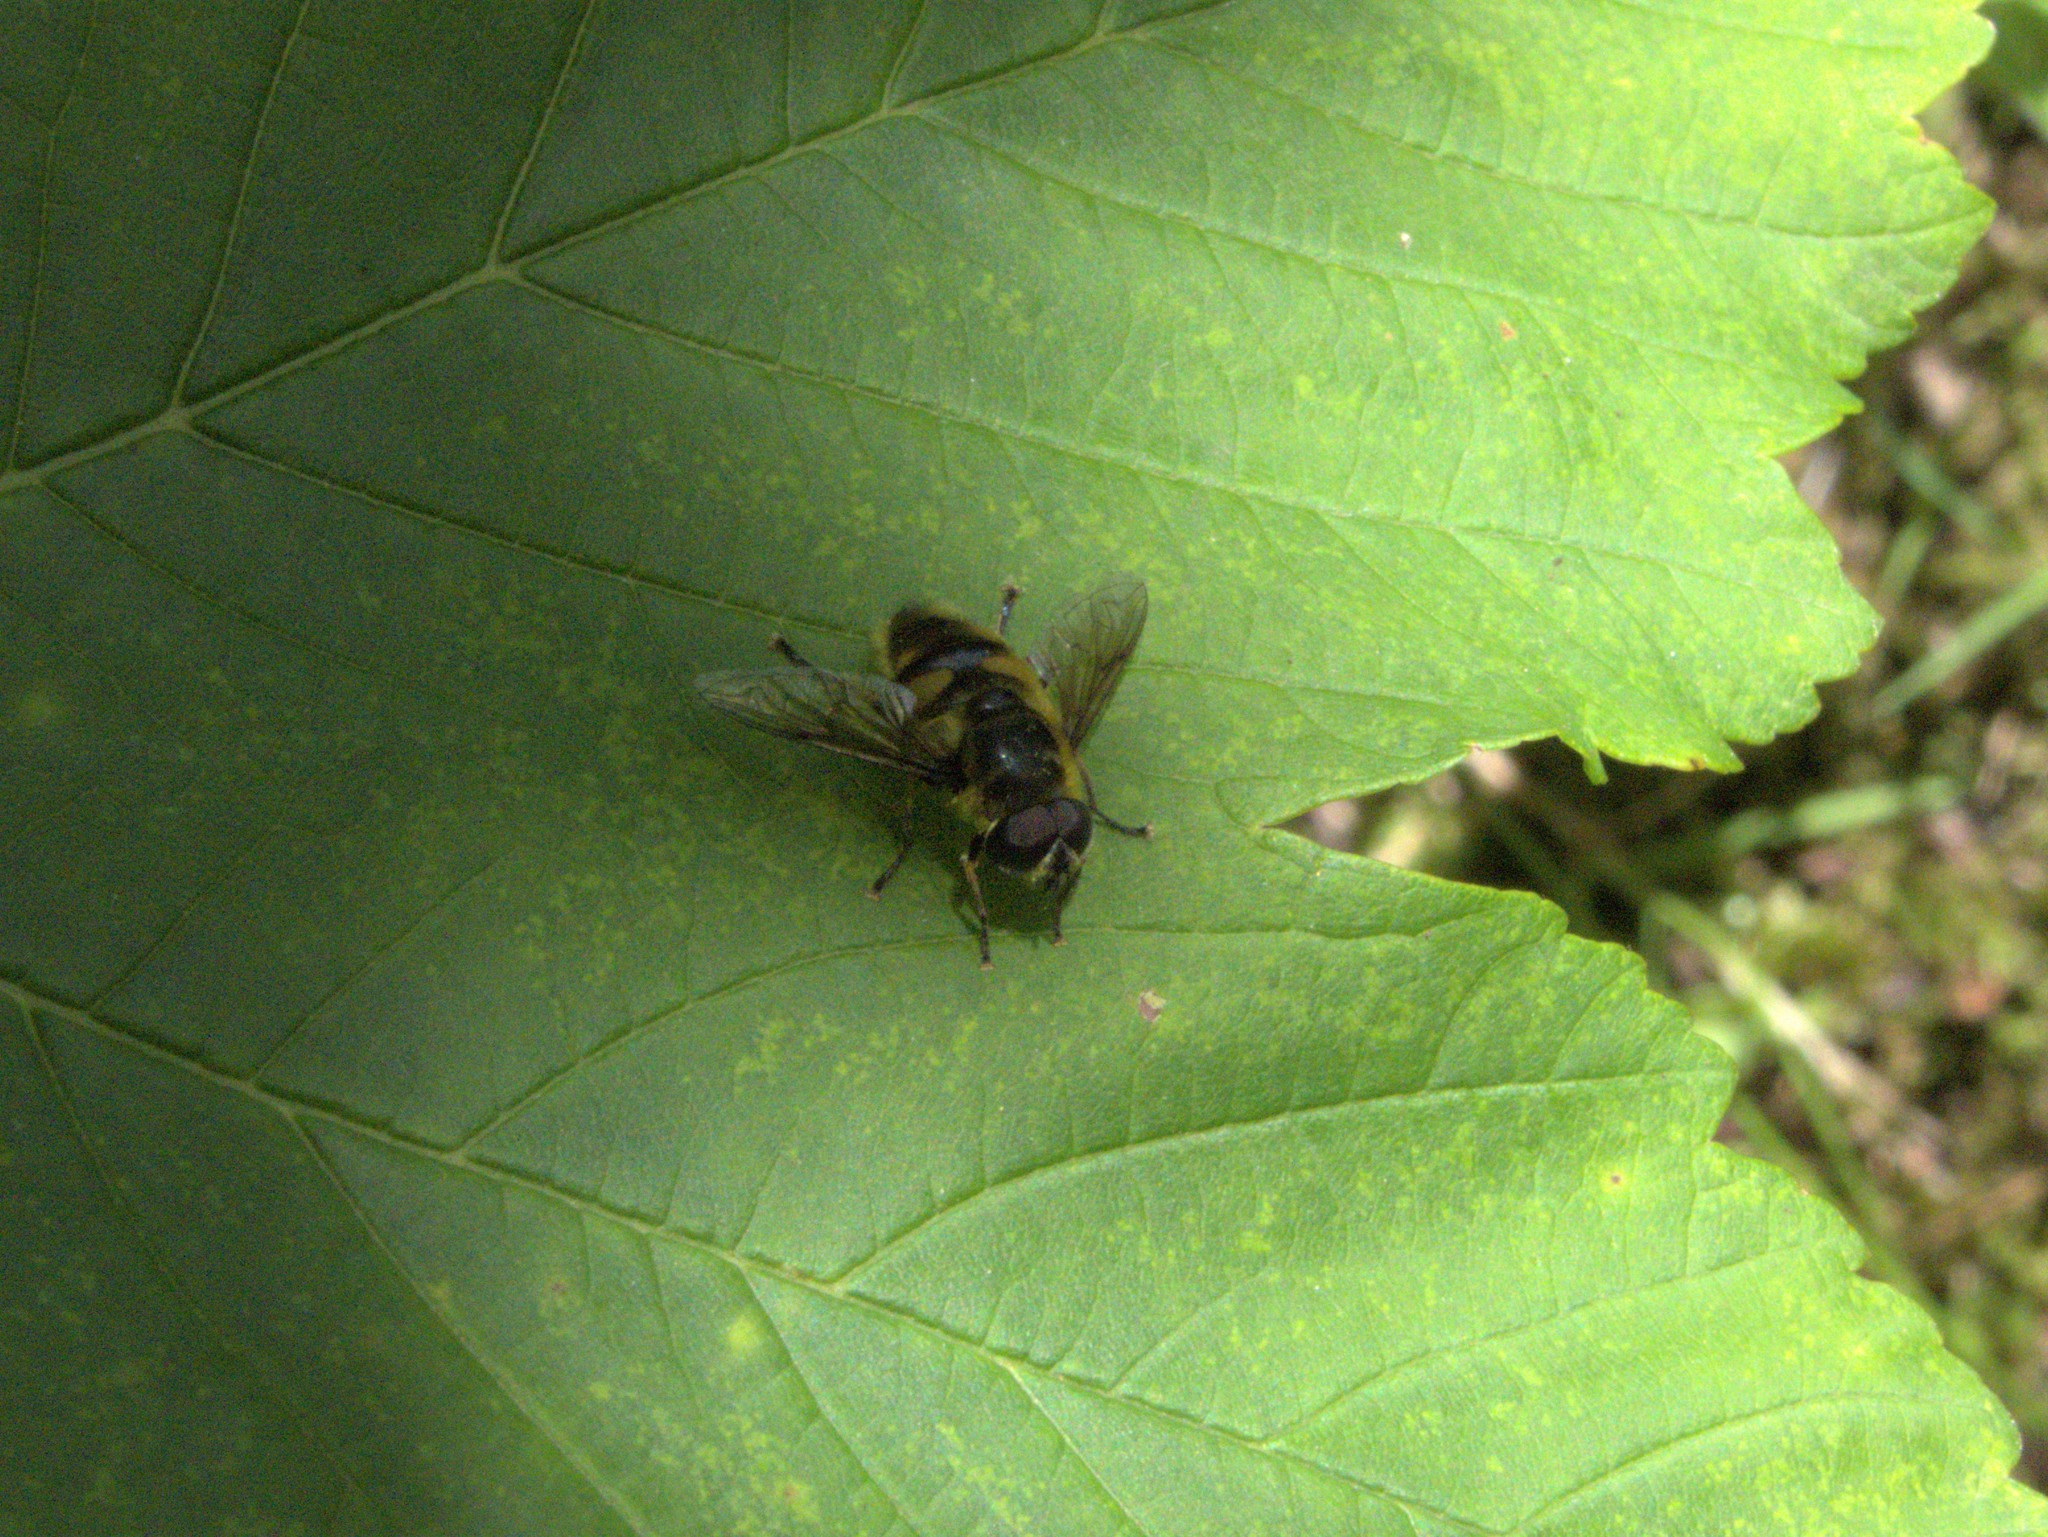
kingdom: Animalia
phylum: Arthropoda
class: Insecta
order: Diptera
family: Syrphidae
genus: Myathropa
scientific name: Myathropa florea
